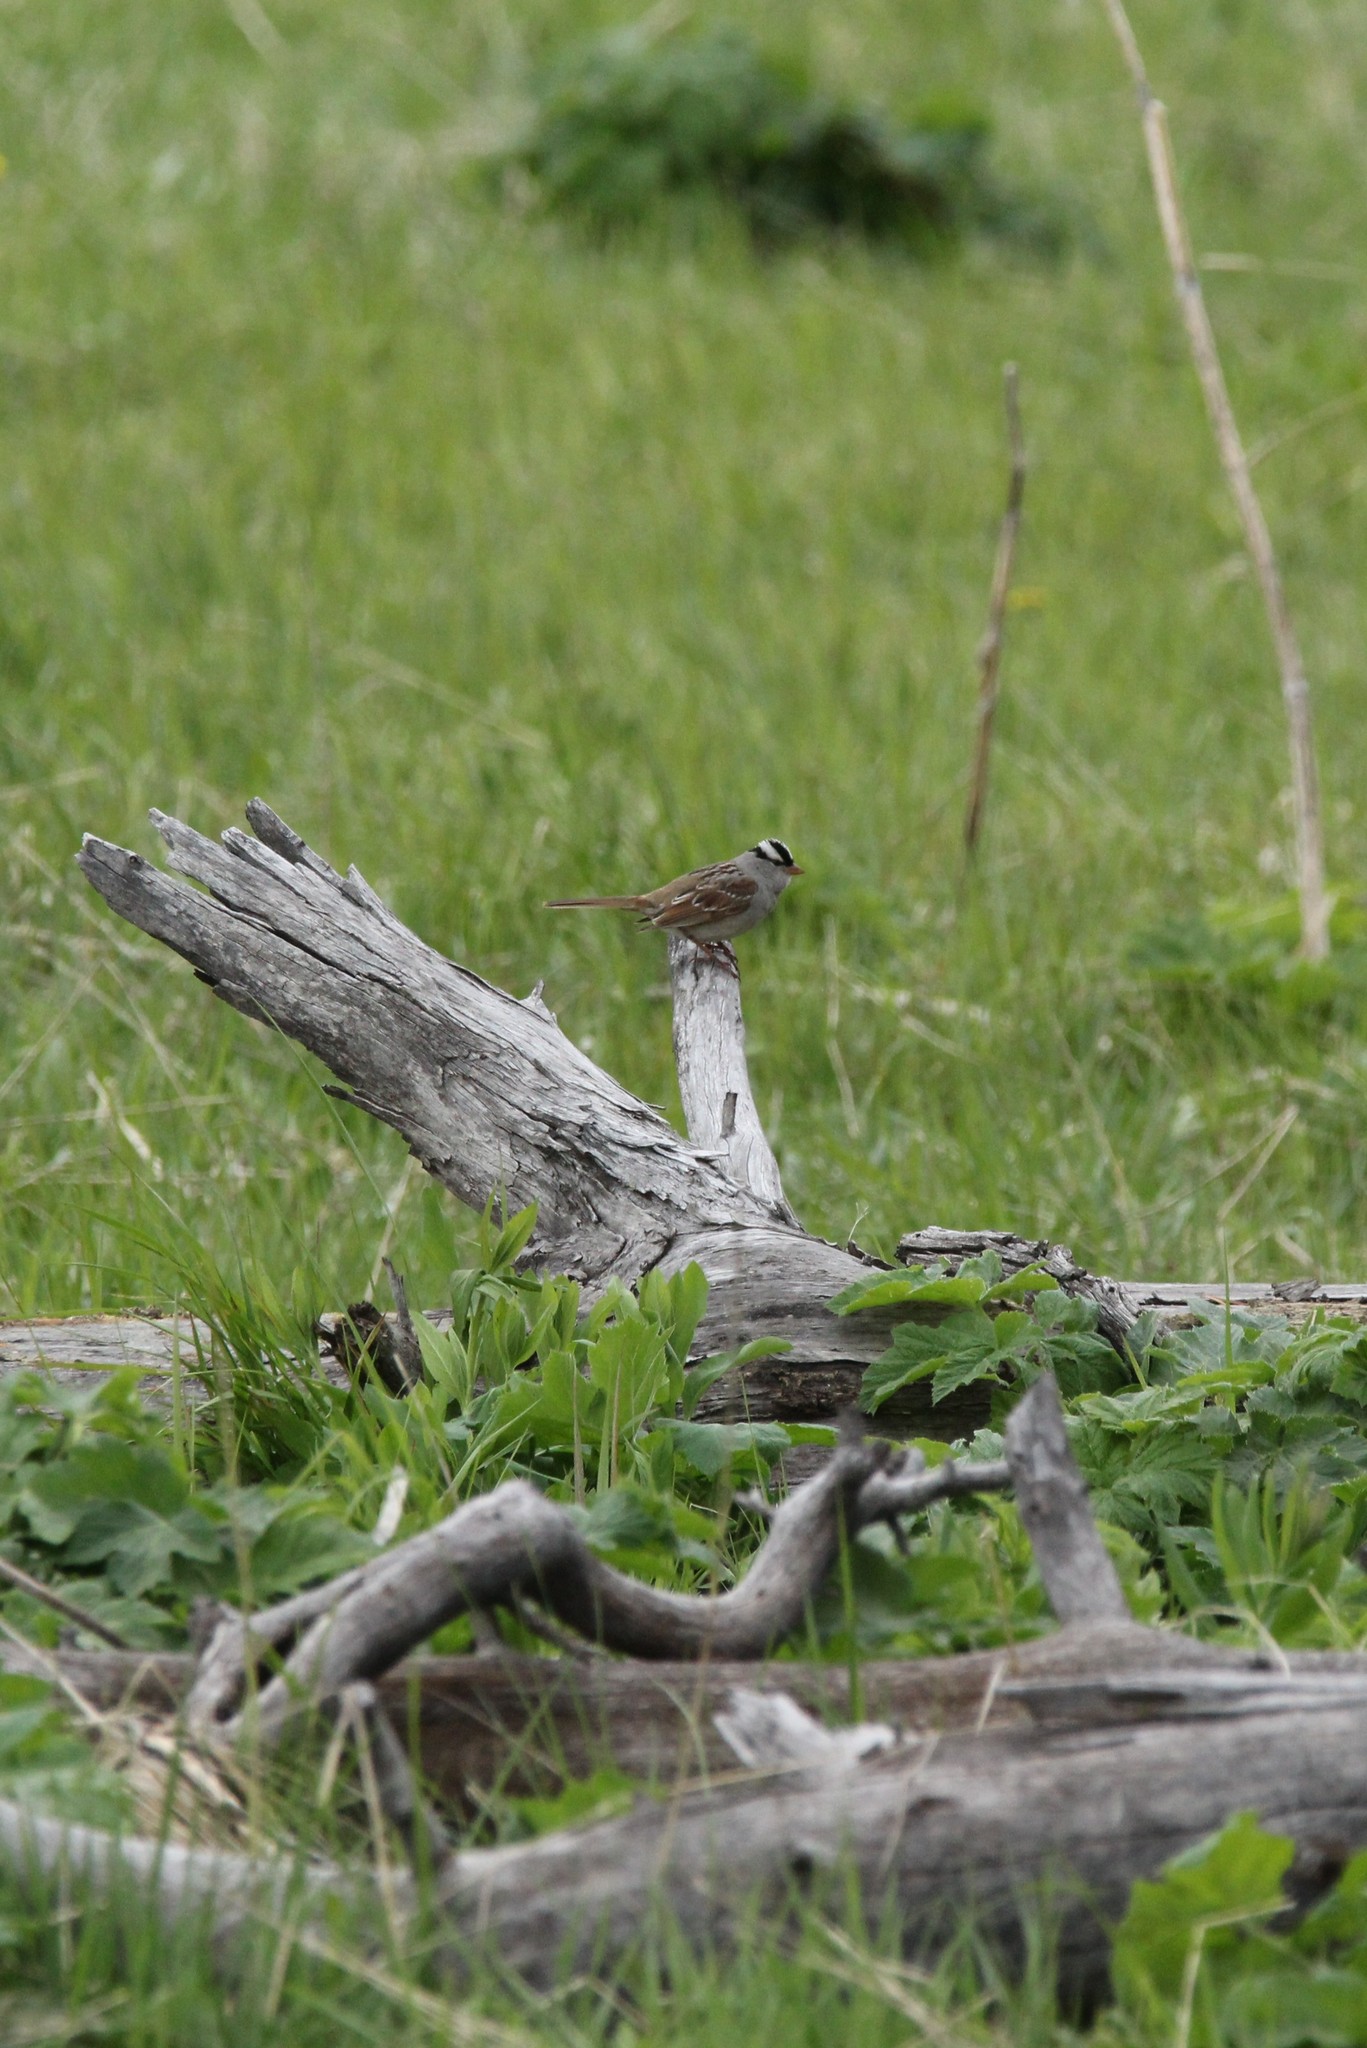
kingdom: Animalia
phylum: Chordata
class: Aves
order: Passeriformes
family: Passerellidae
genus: Zonotrichia
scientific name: Zonotrichia leucophrys
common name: White-crowned sparrow
